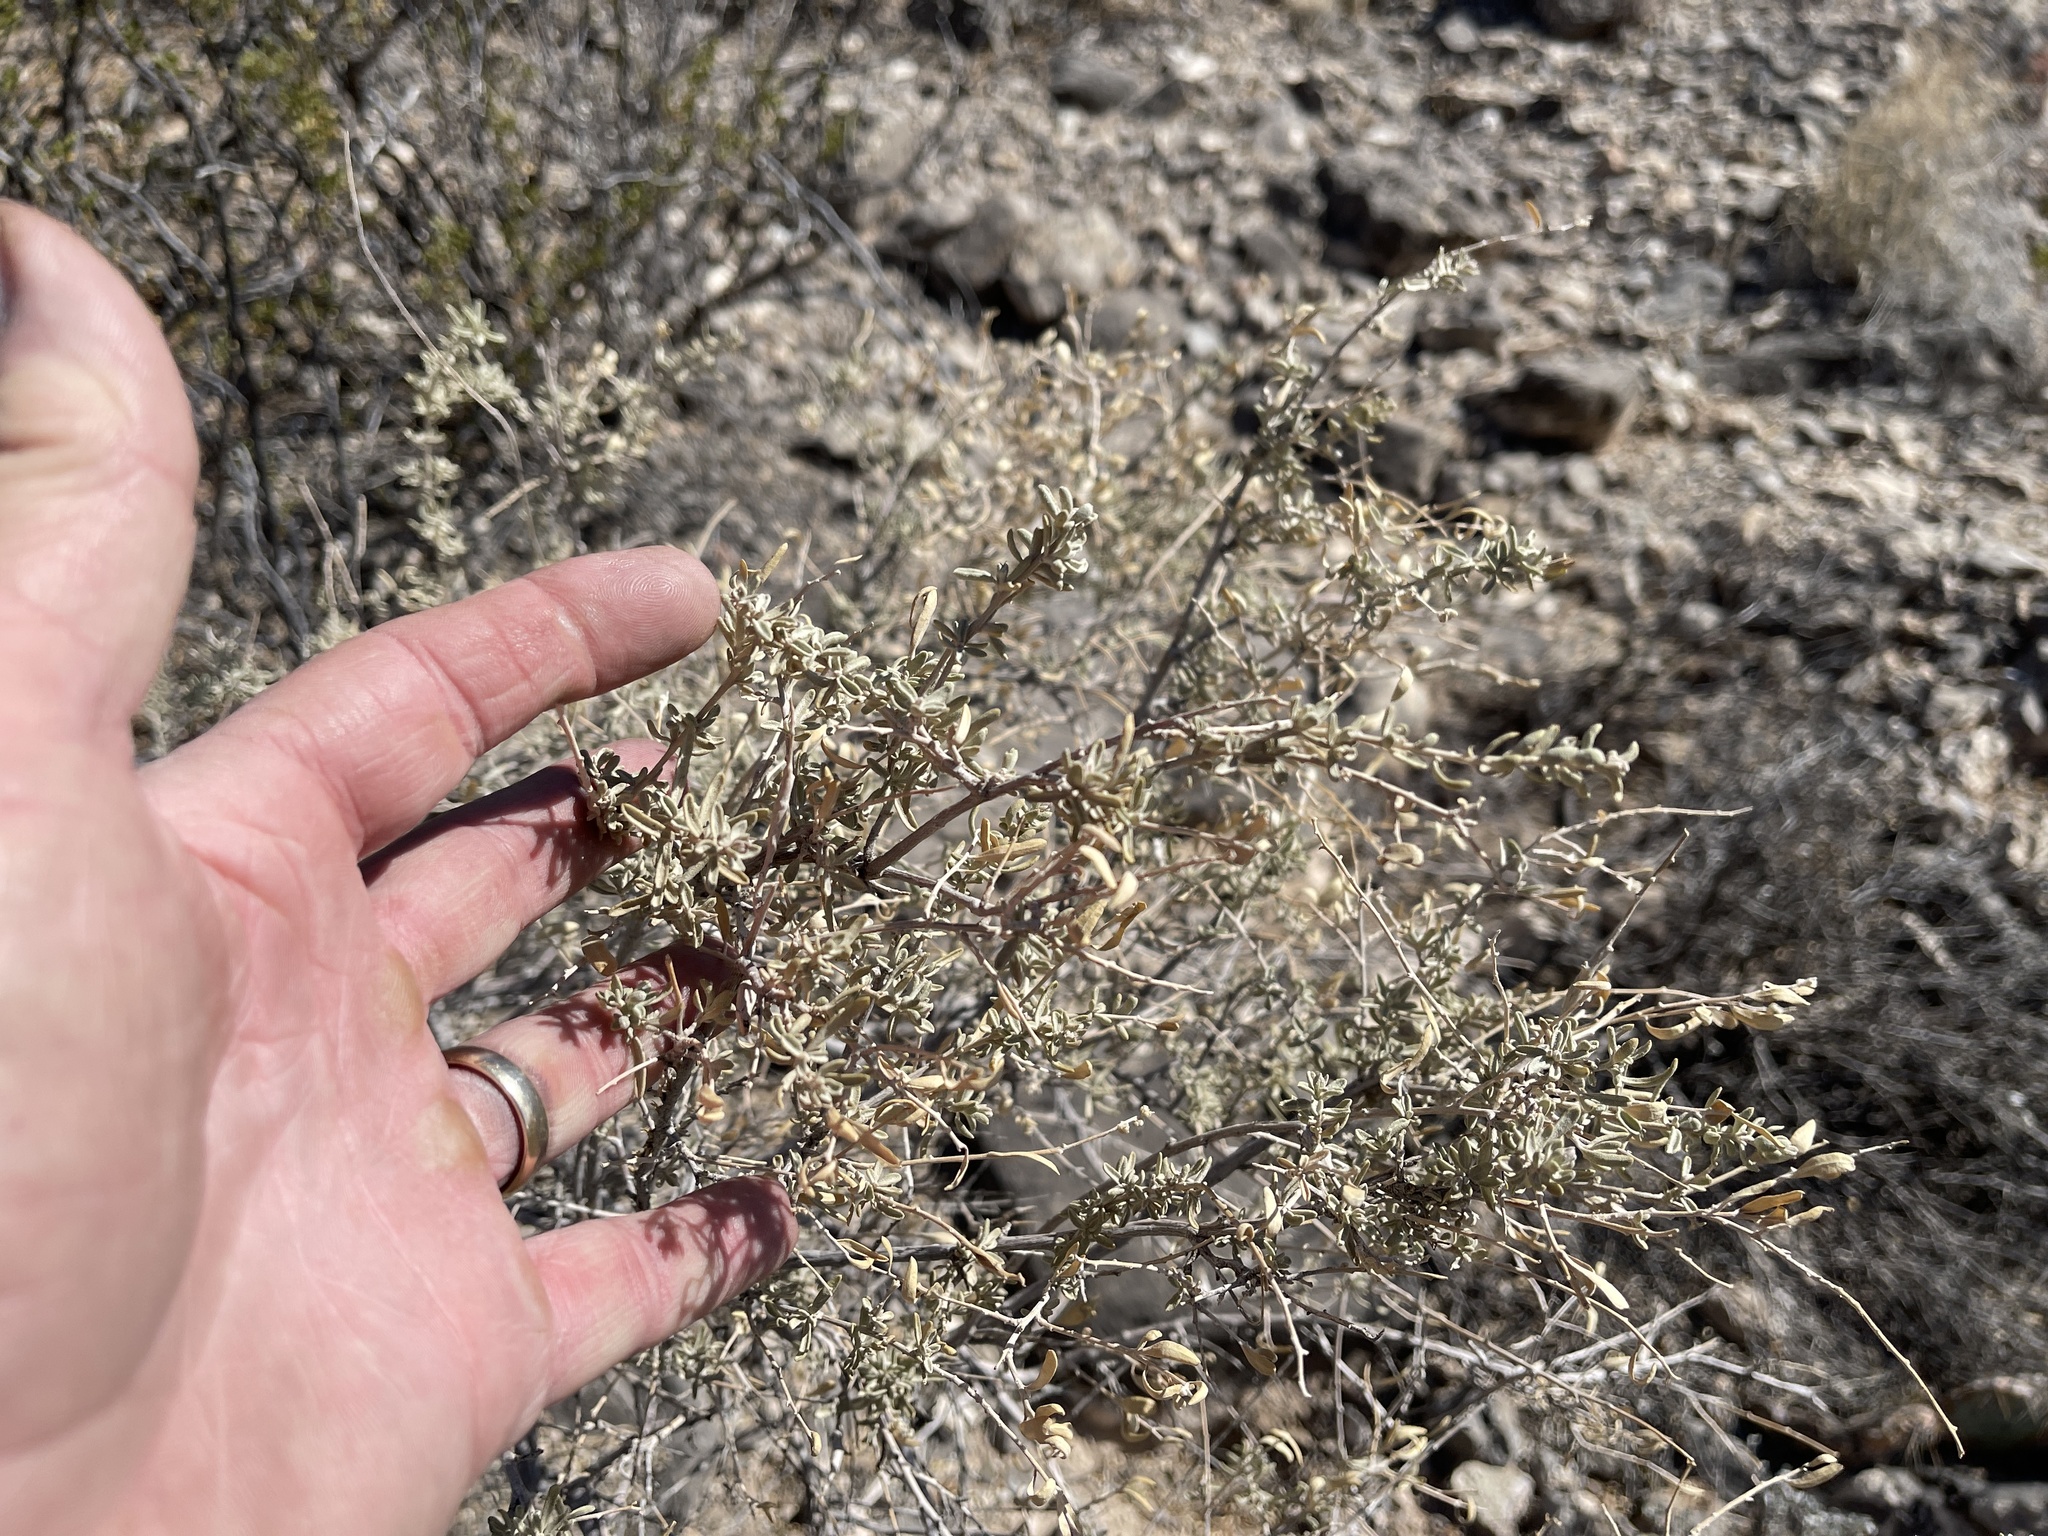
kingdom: Plantae
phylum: Tracheophyta
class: Magnoliopsida
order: Caryophyllales
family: Amaranthaceae
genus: Atriplex
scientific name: Atriplex canescens
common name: Four-wing saltbush
